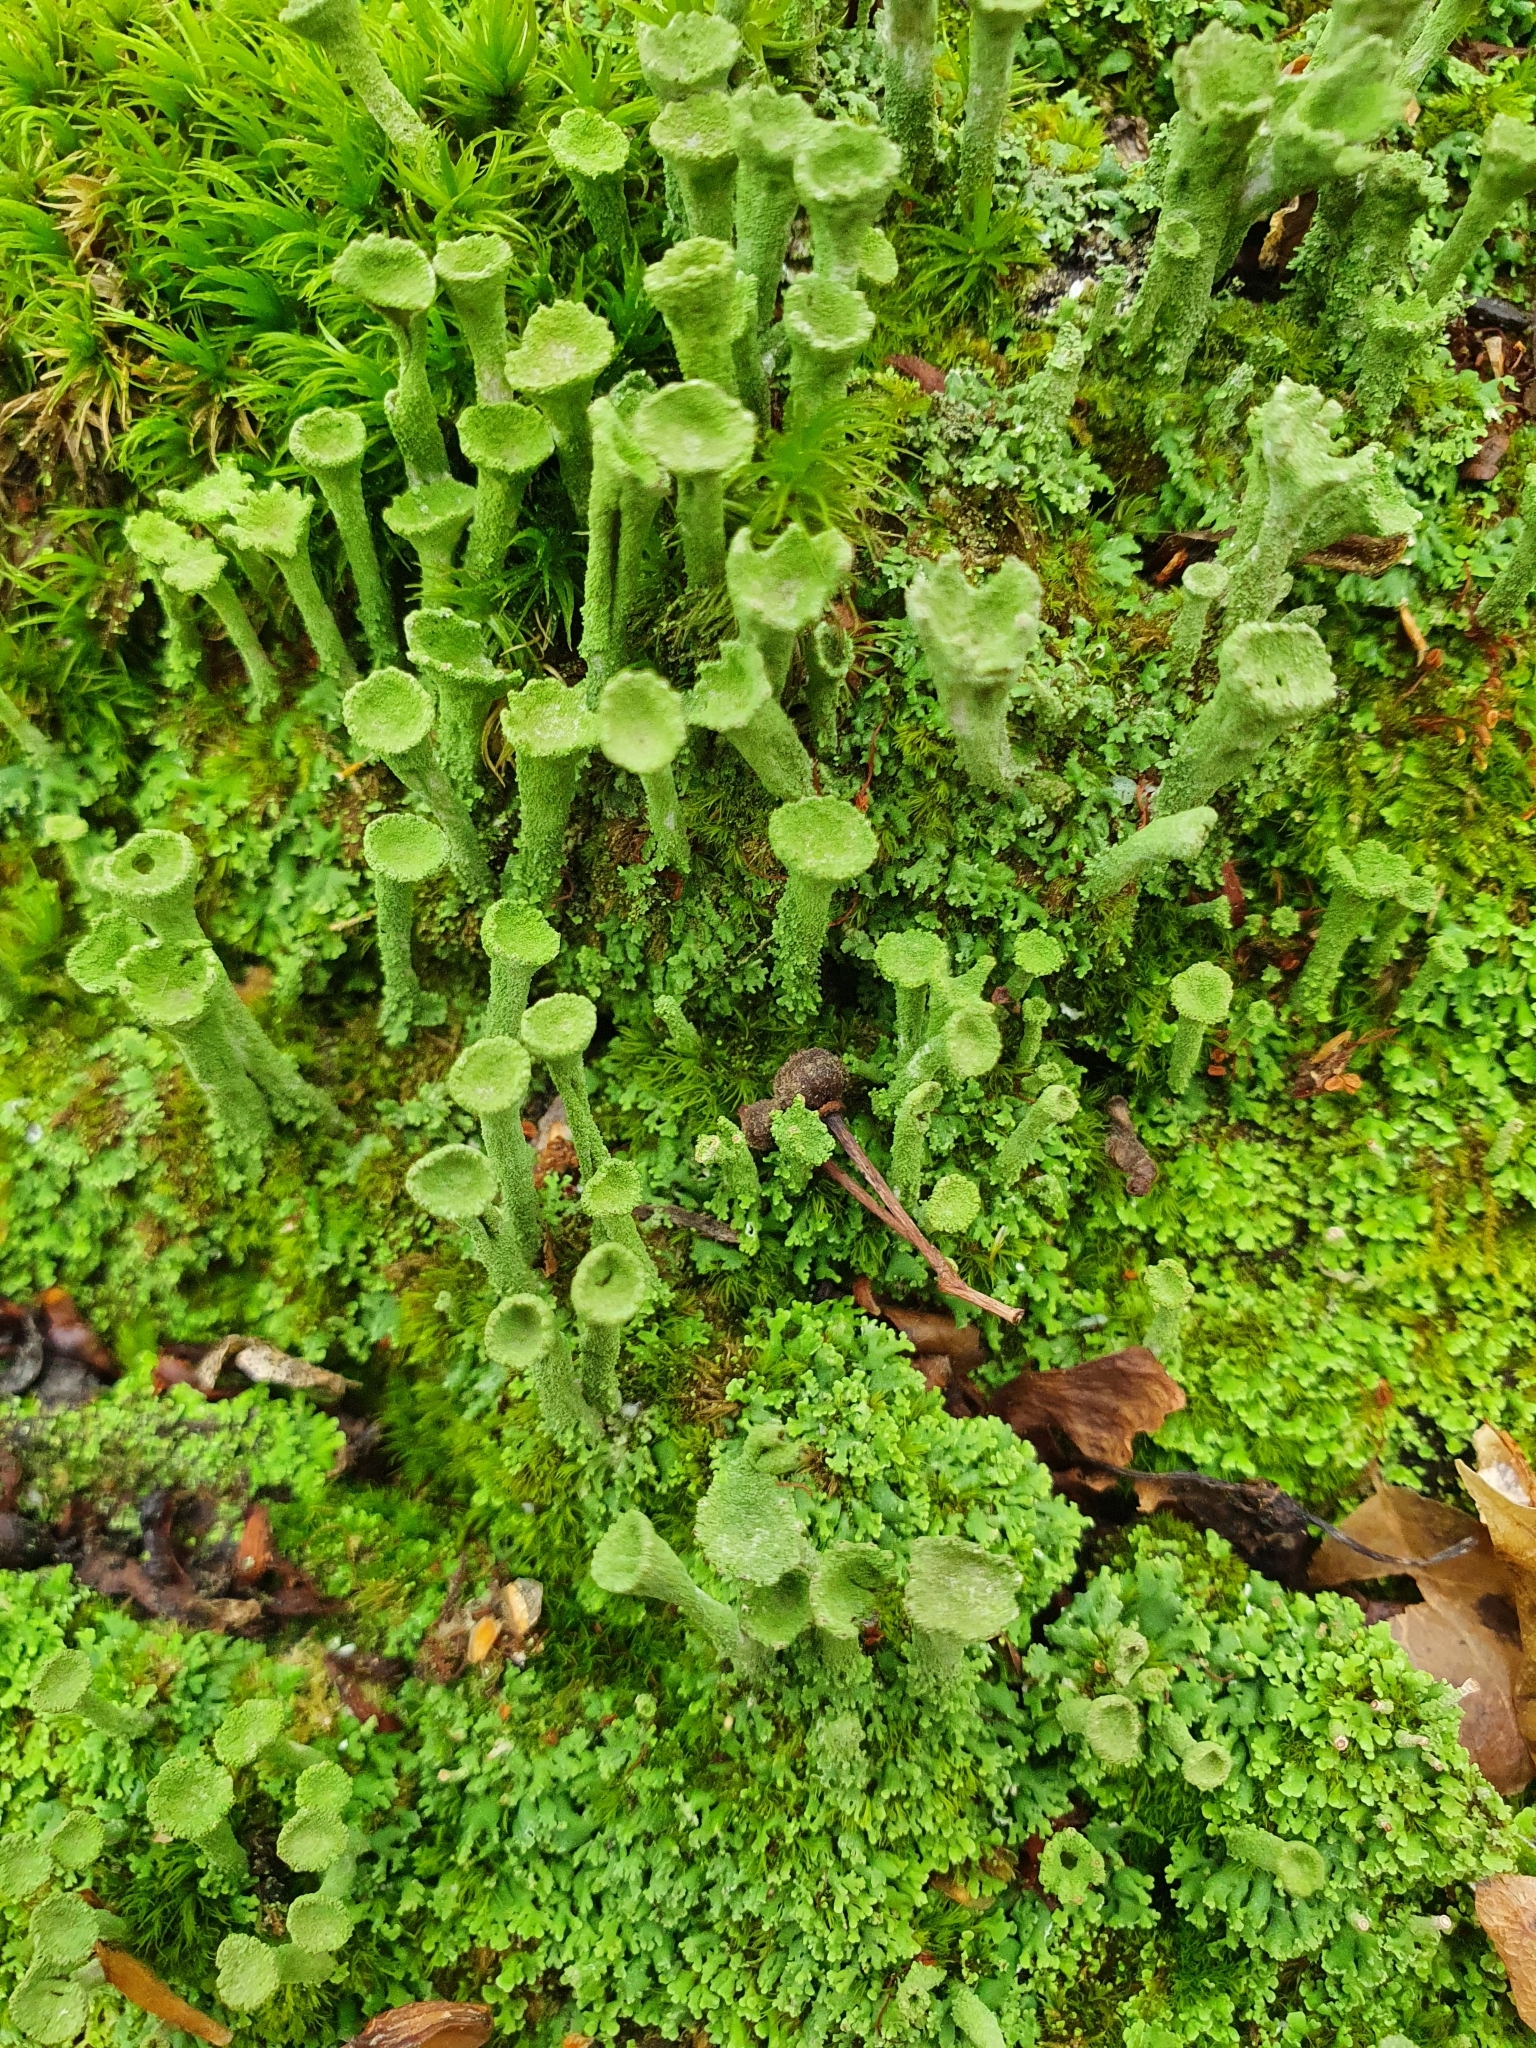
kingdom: Fungi
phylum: Ascomycota
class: Lecanoromycetes
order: Lecanorales
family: Cladoniaceae
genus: Cladonia
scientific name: Cladonia fimbriata
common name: Powdered trumpet lichen
